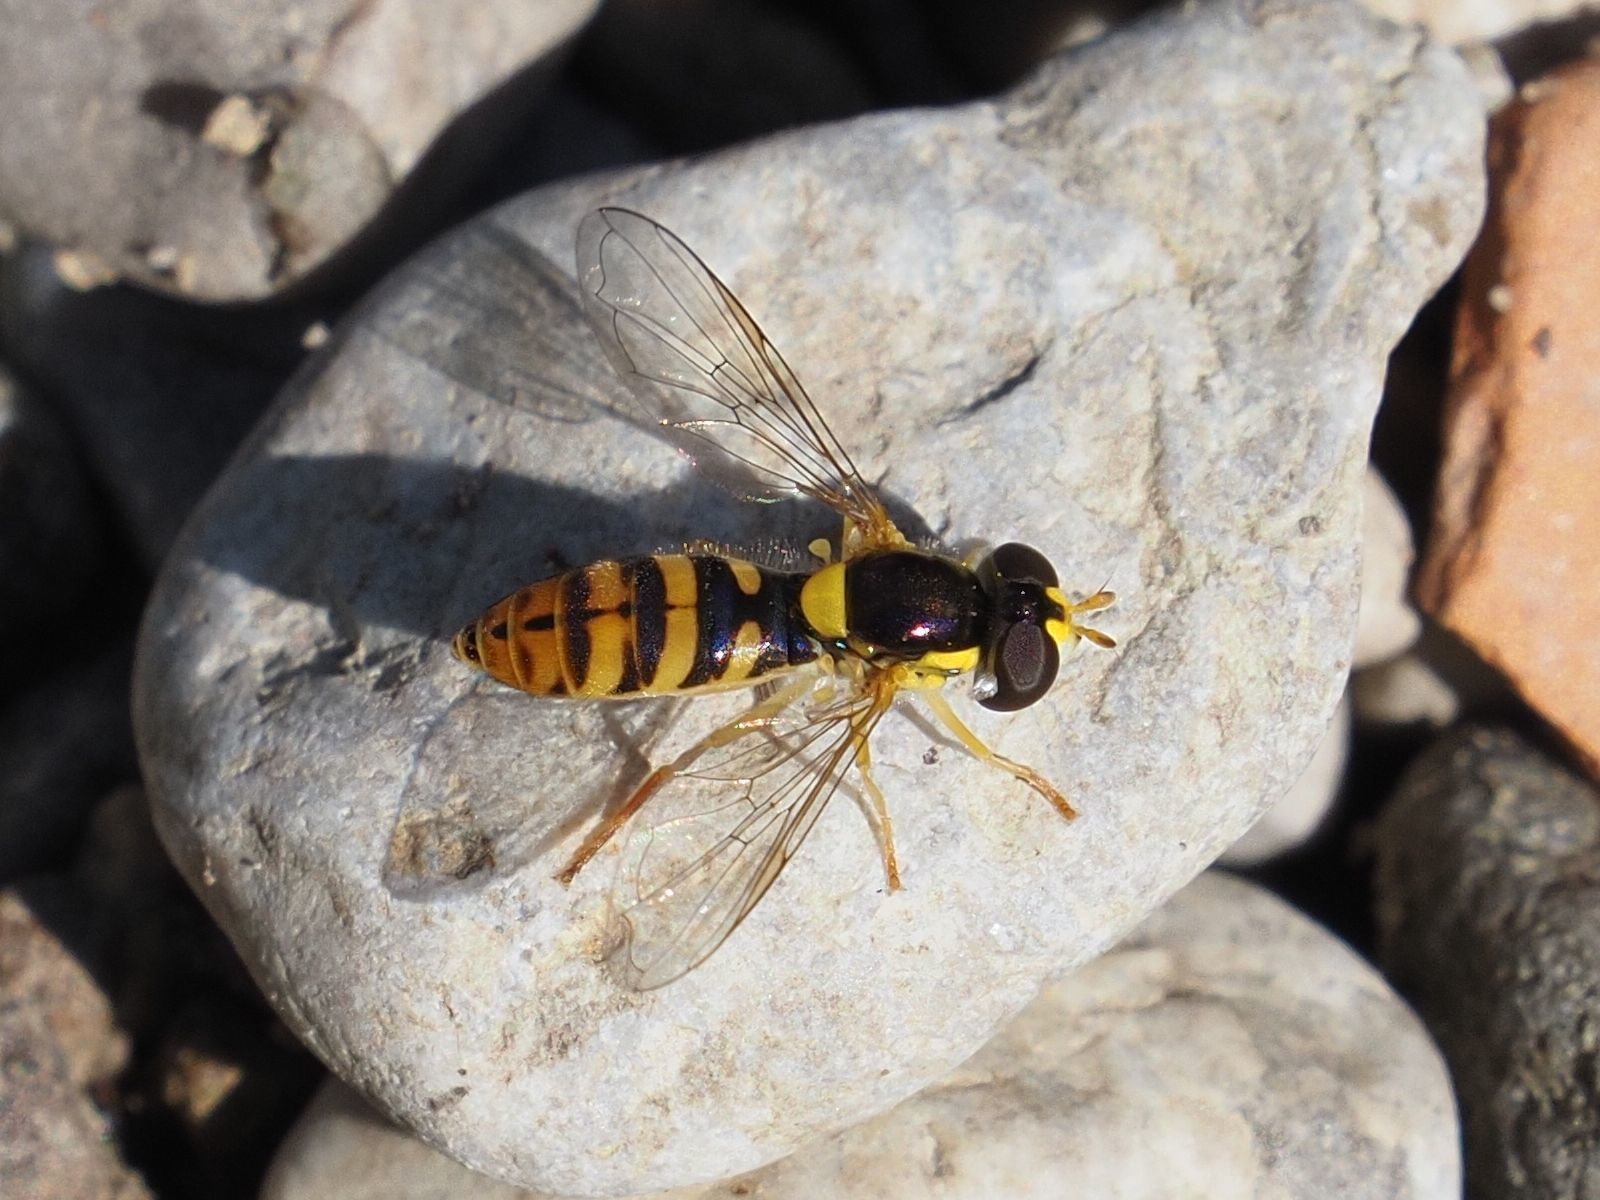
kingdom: Animalia
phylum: Arthropoda
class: Insecta
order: Diptera
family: Syrphidae
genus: Sphaerophoria
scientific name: Sphaerophoria rueppellii
